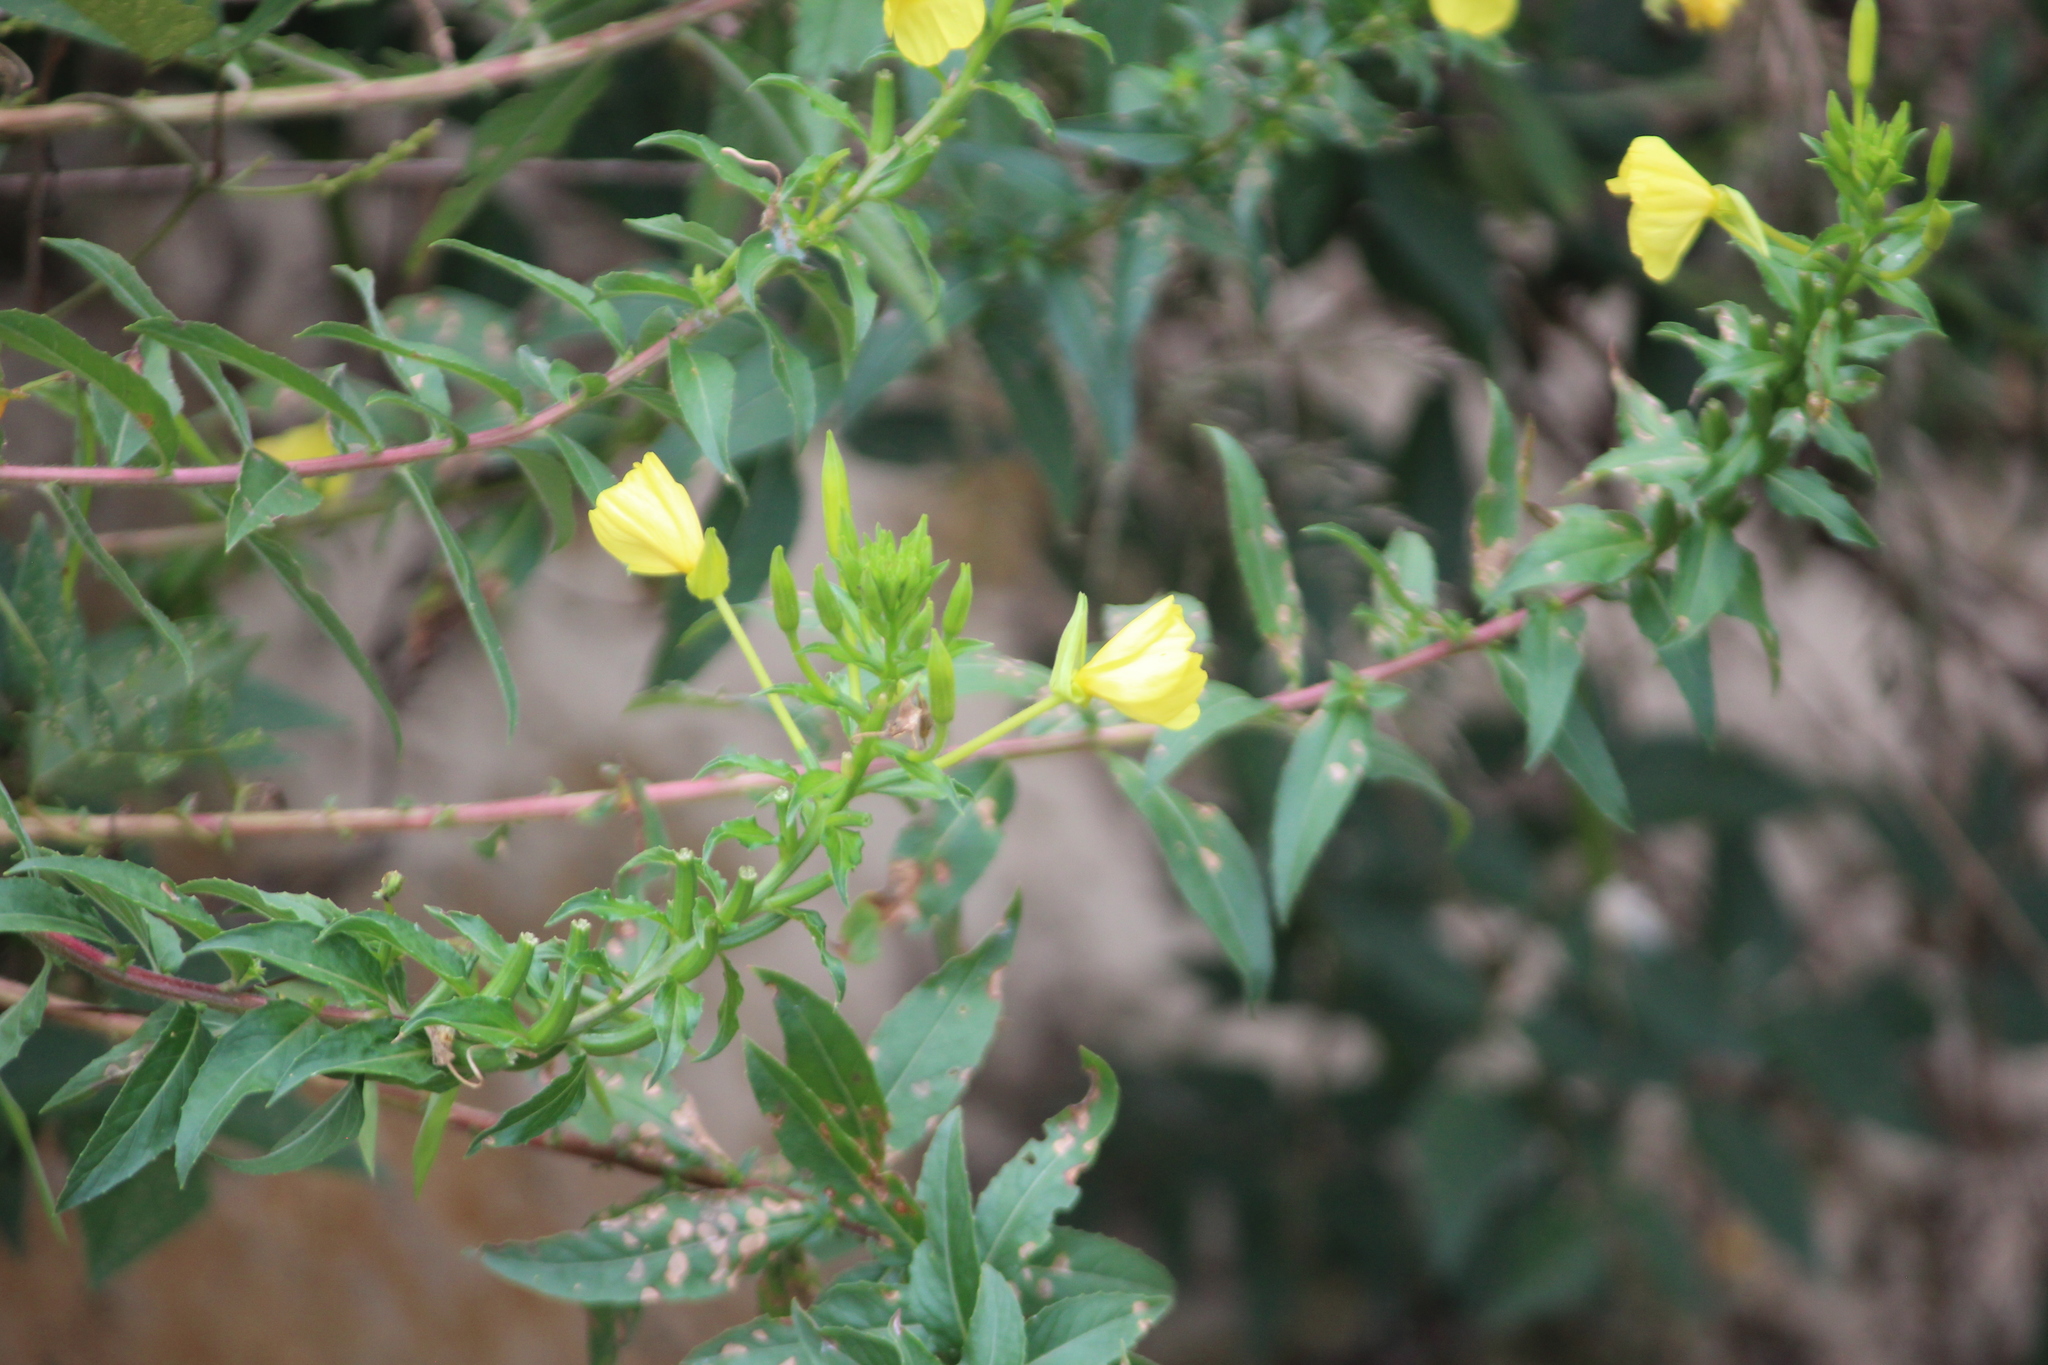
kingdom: Plantae
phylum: Tracheophyta
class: Magnoliopsida
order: Myrtales
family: Onagraceae
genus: Oenothera
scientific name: Oenothera biennis
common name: Common evening-primrose
